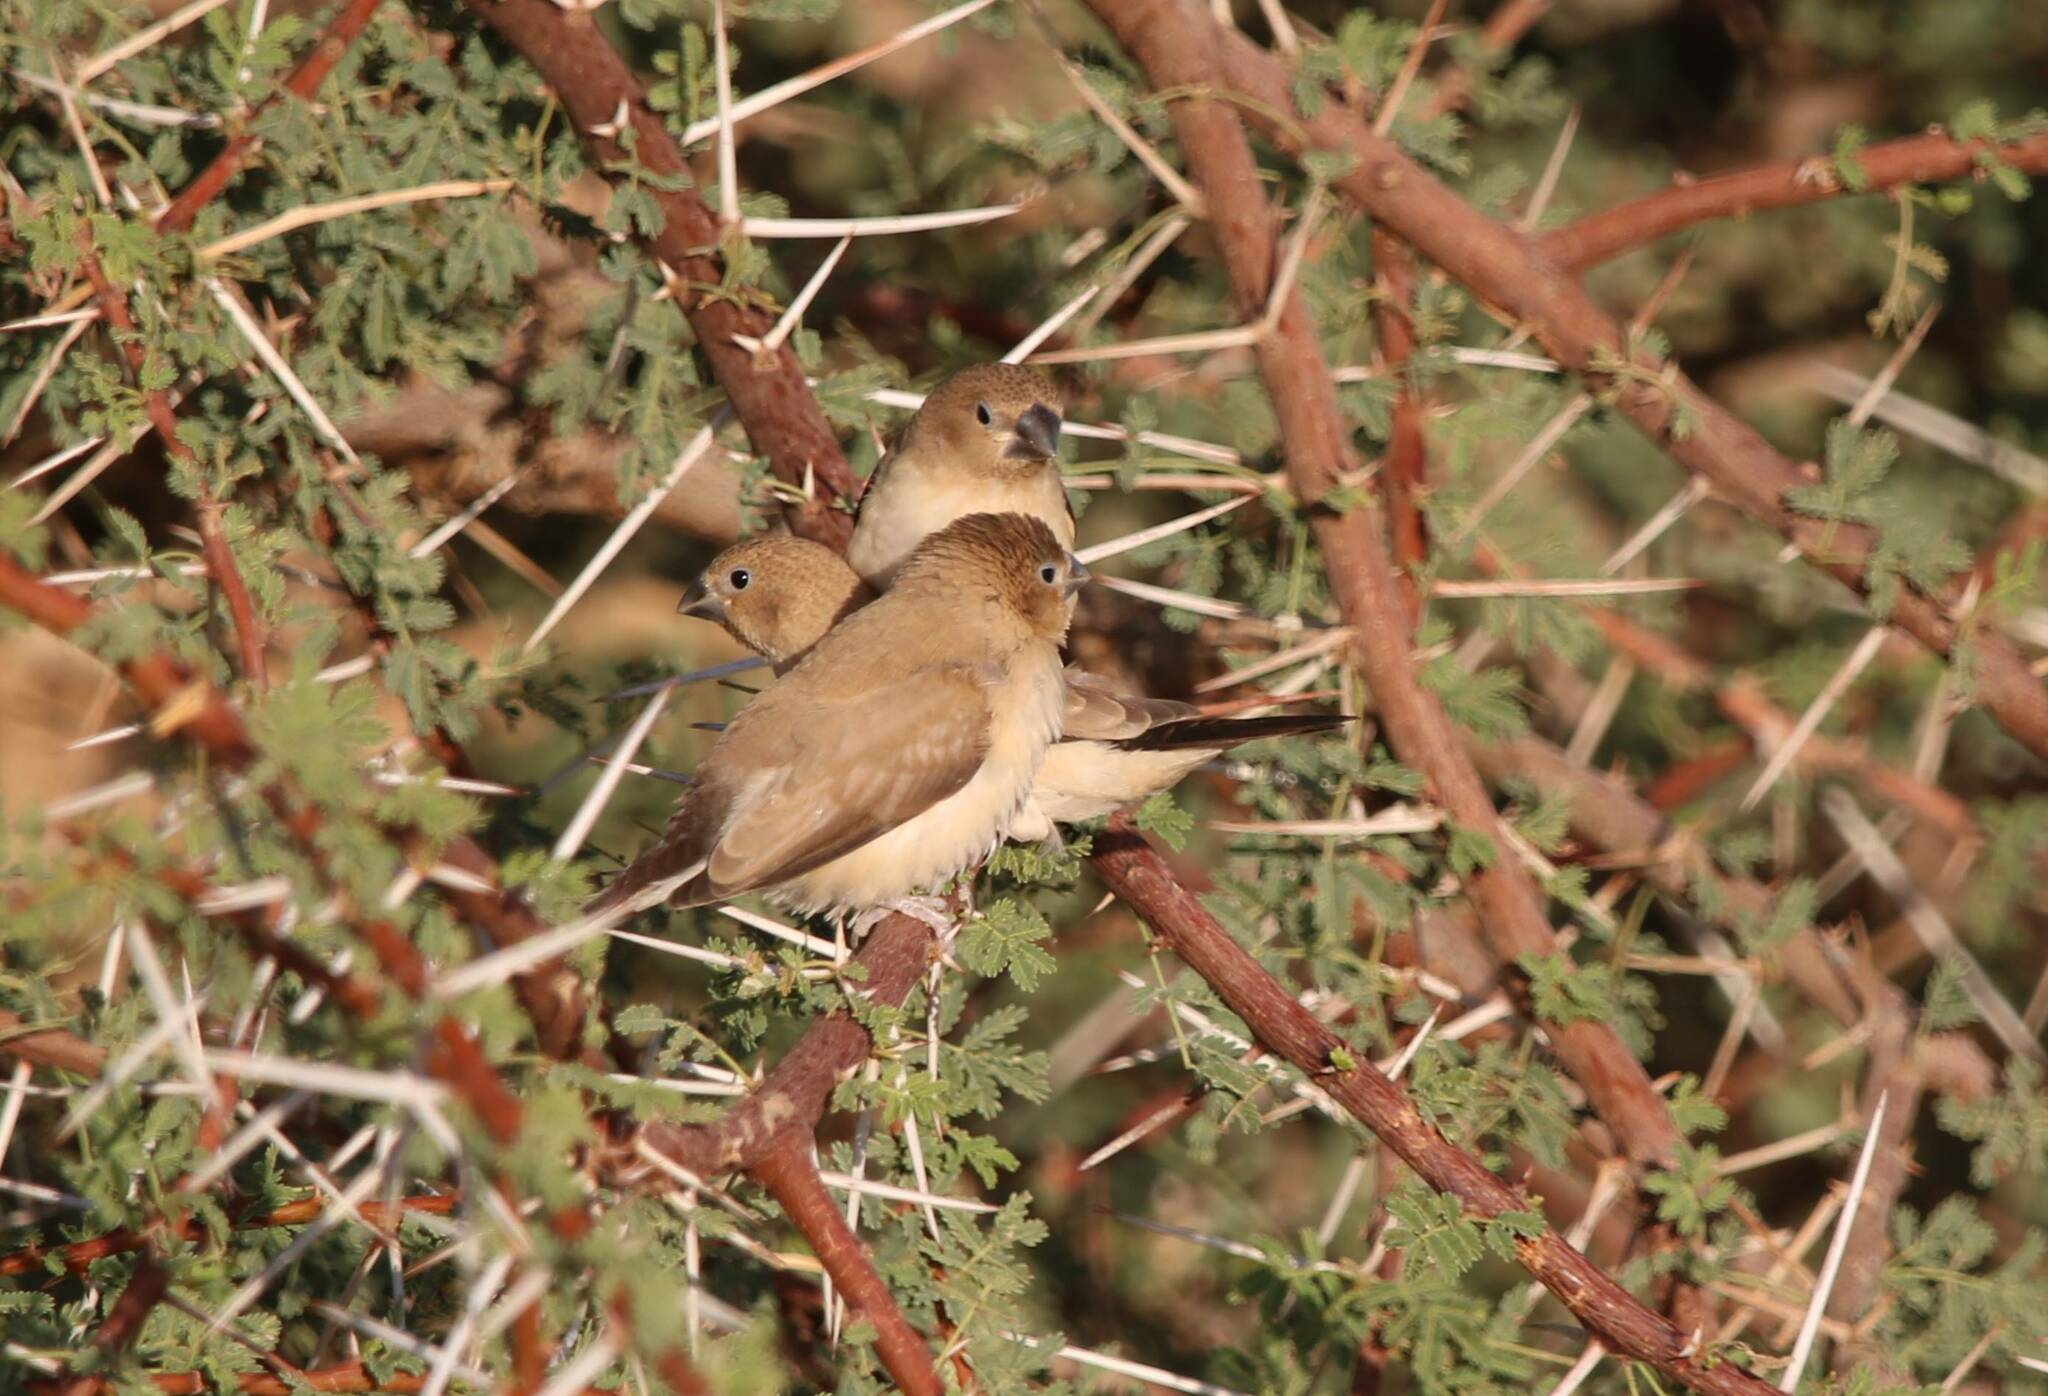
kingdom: Animalia
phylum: Chordata
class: Aves
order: Passeriformes
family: Estrildidae
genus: Euodice
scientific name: Euodice cantans
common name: African silverbill
